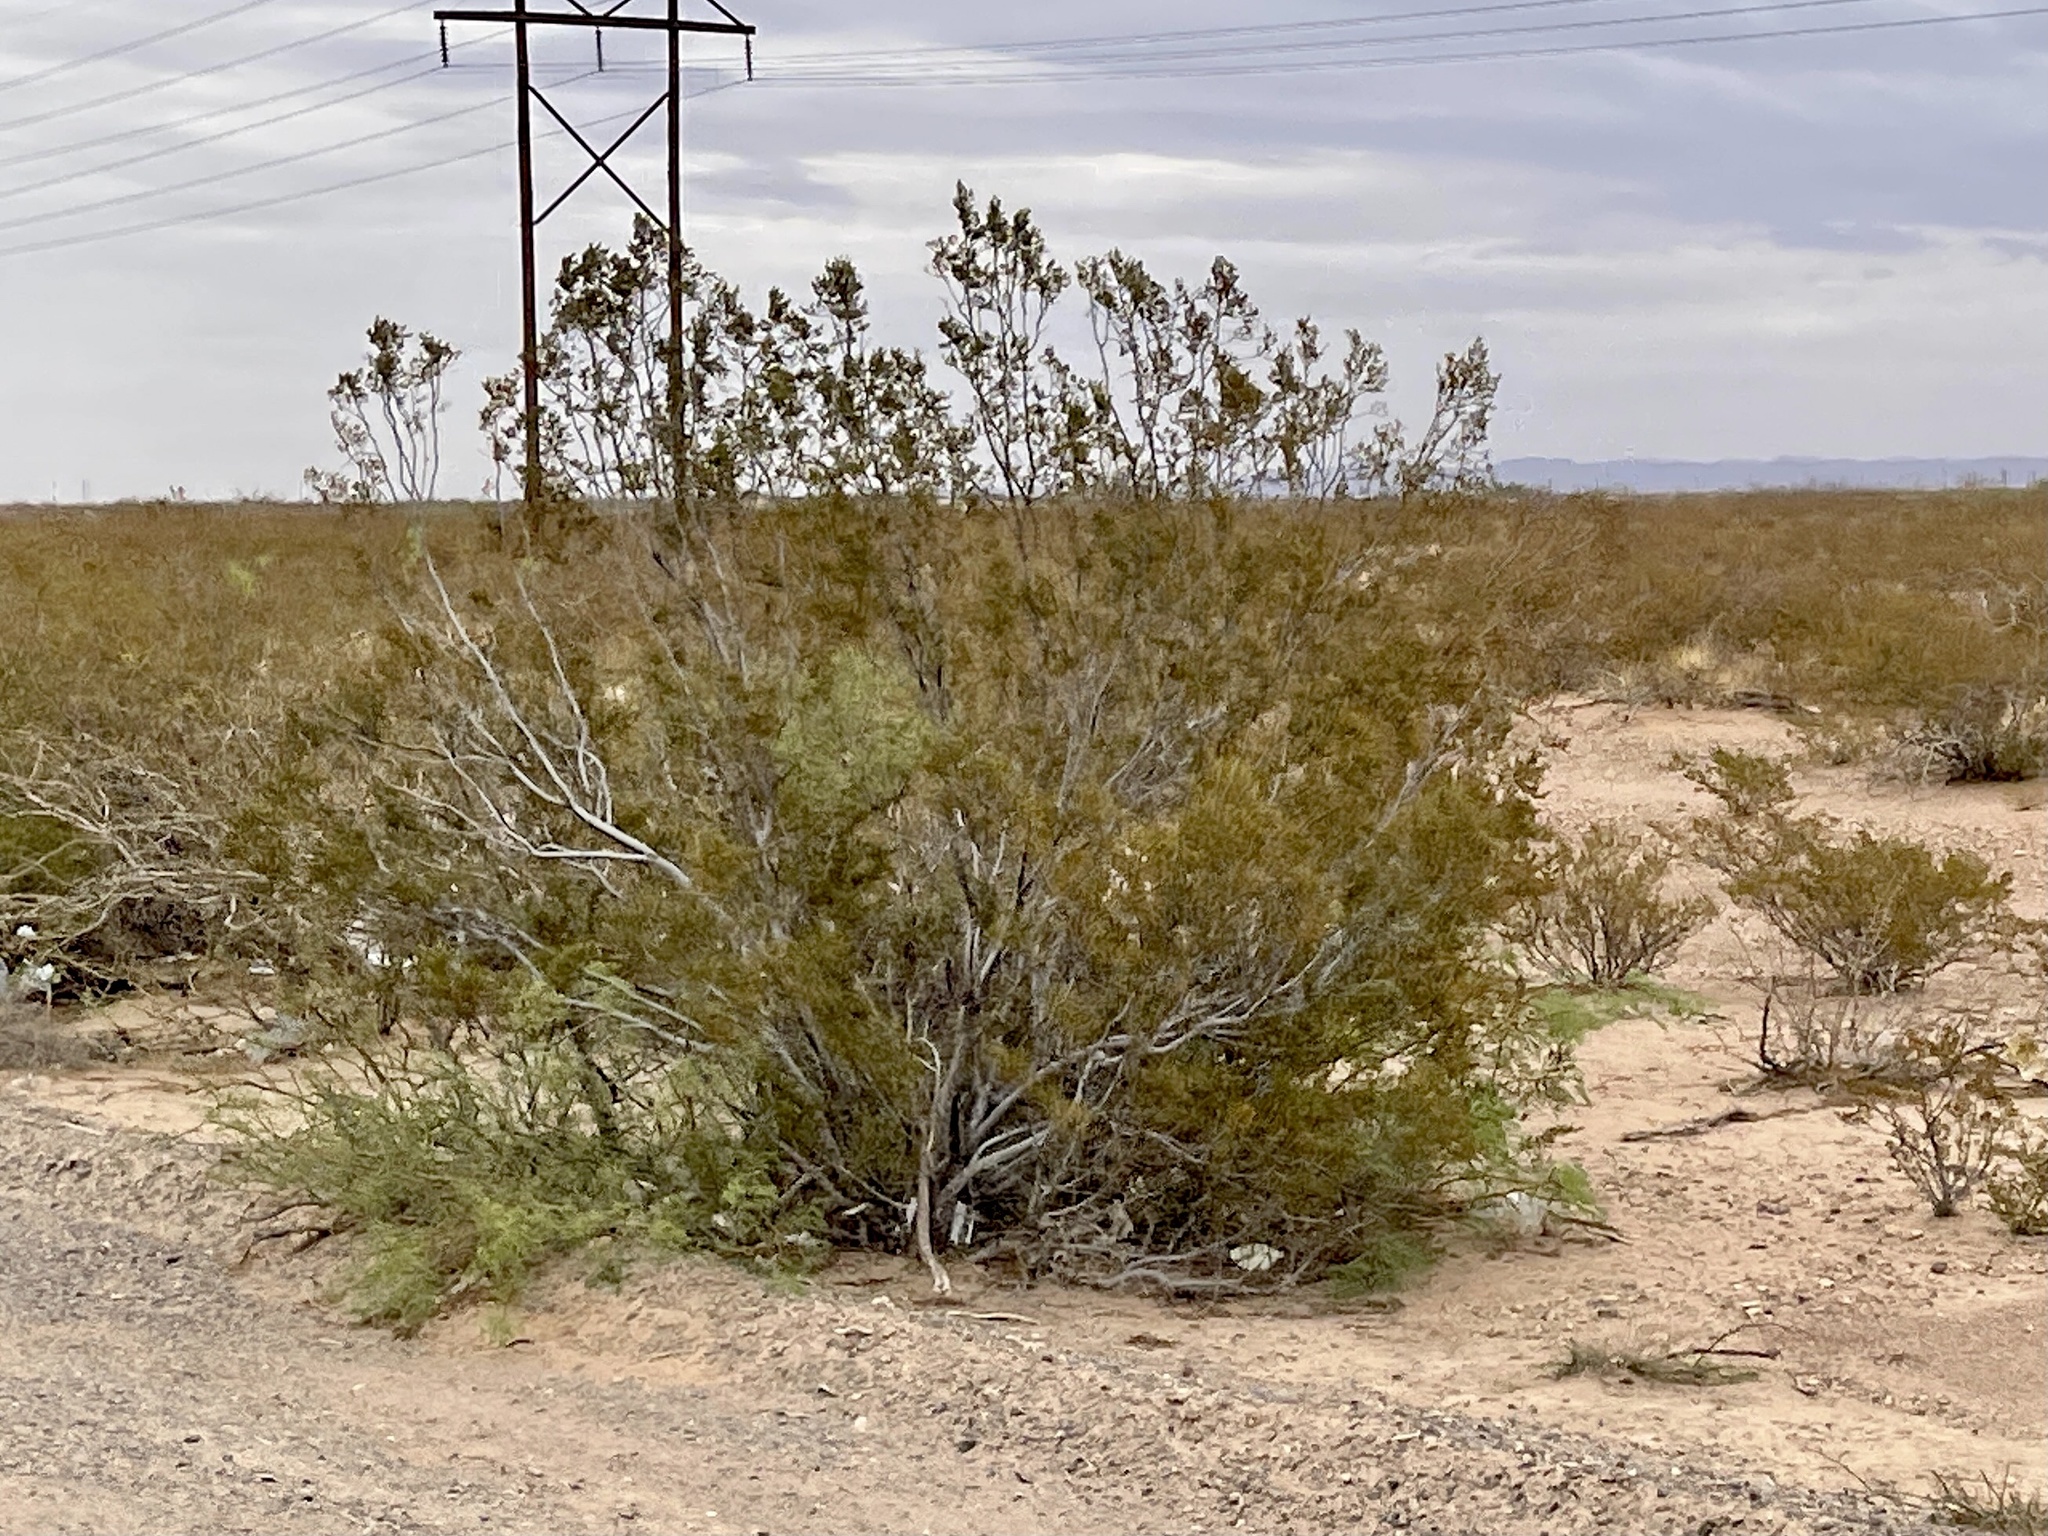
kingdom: Plantae
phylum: Tracheophyta
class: Magnoliopsida
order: Zygophyllales
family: Zygophyllaceae
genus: Larrea
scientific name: Larrea tridentata
